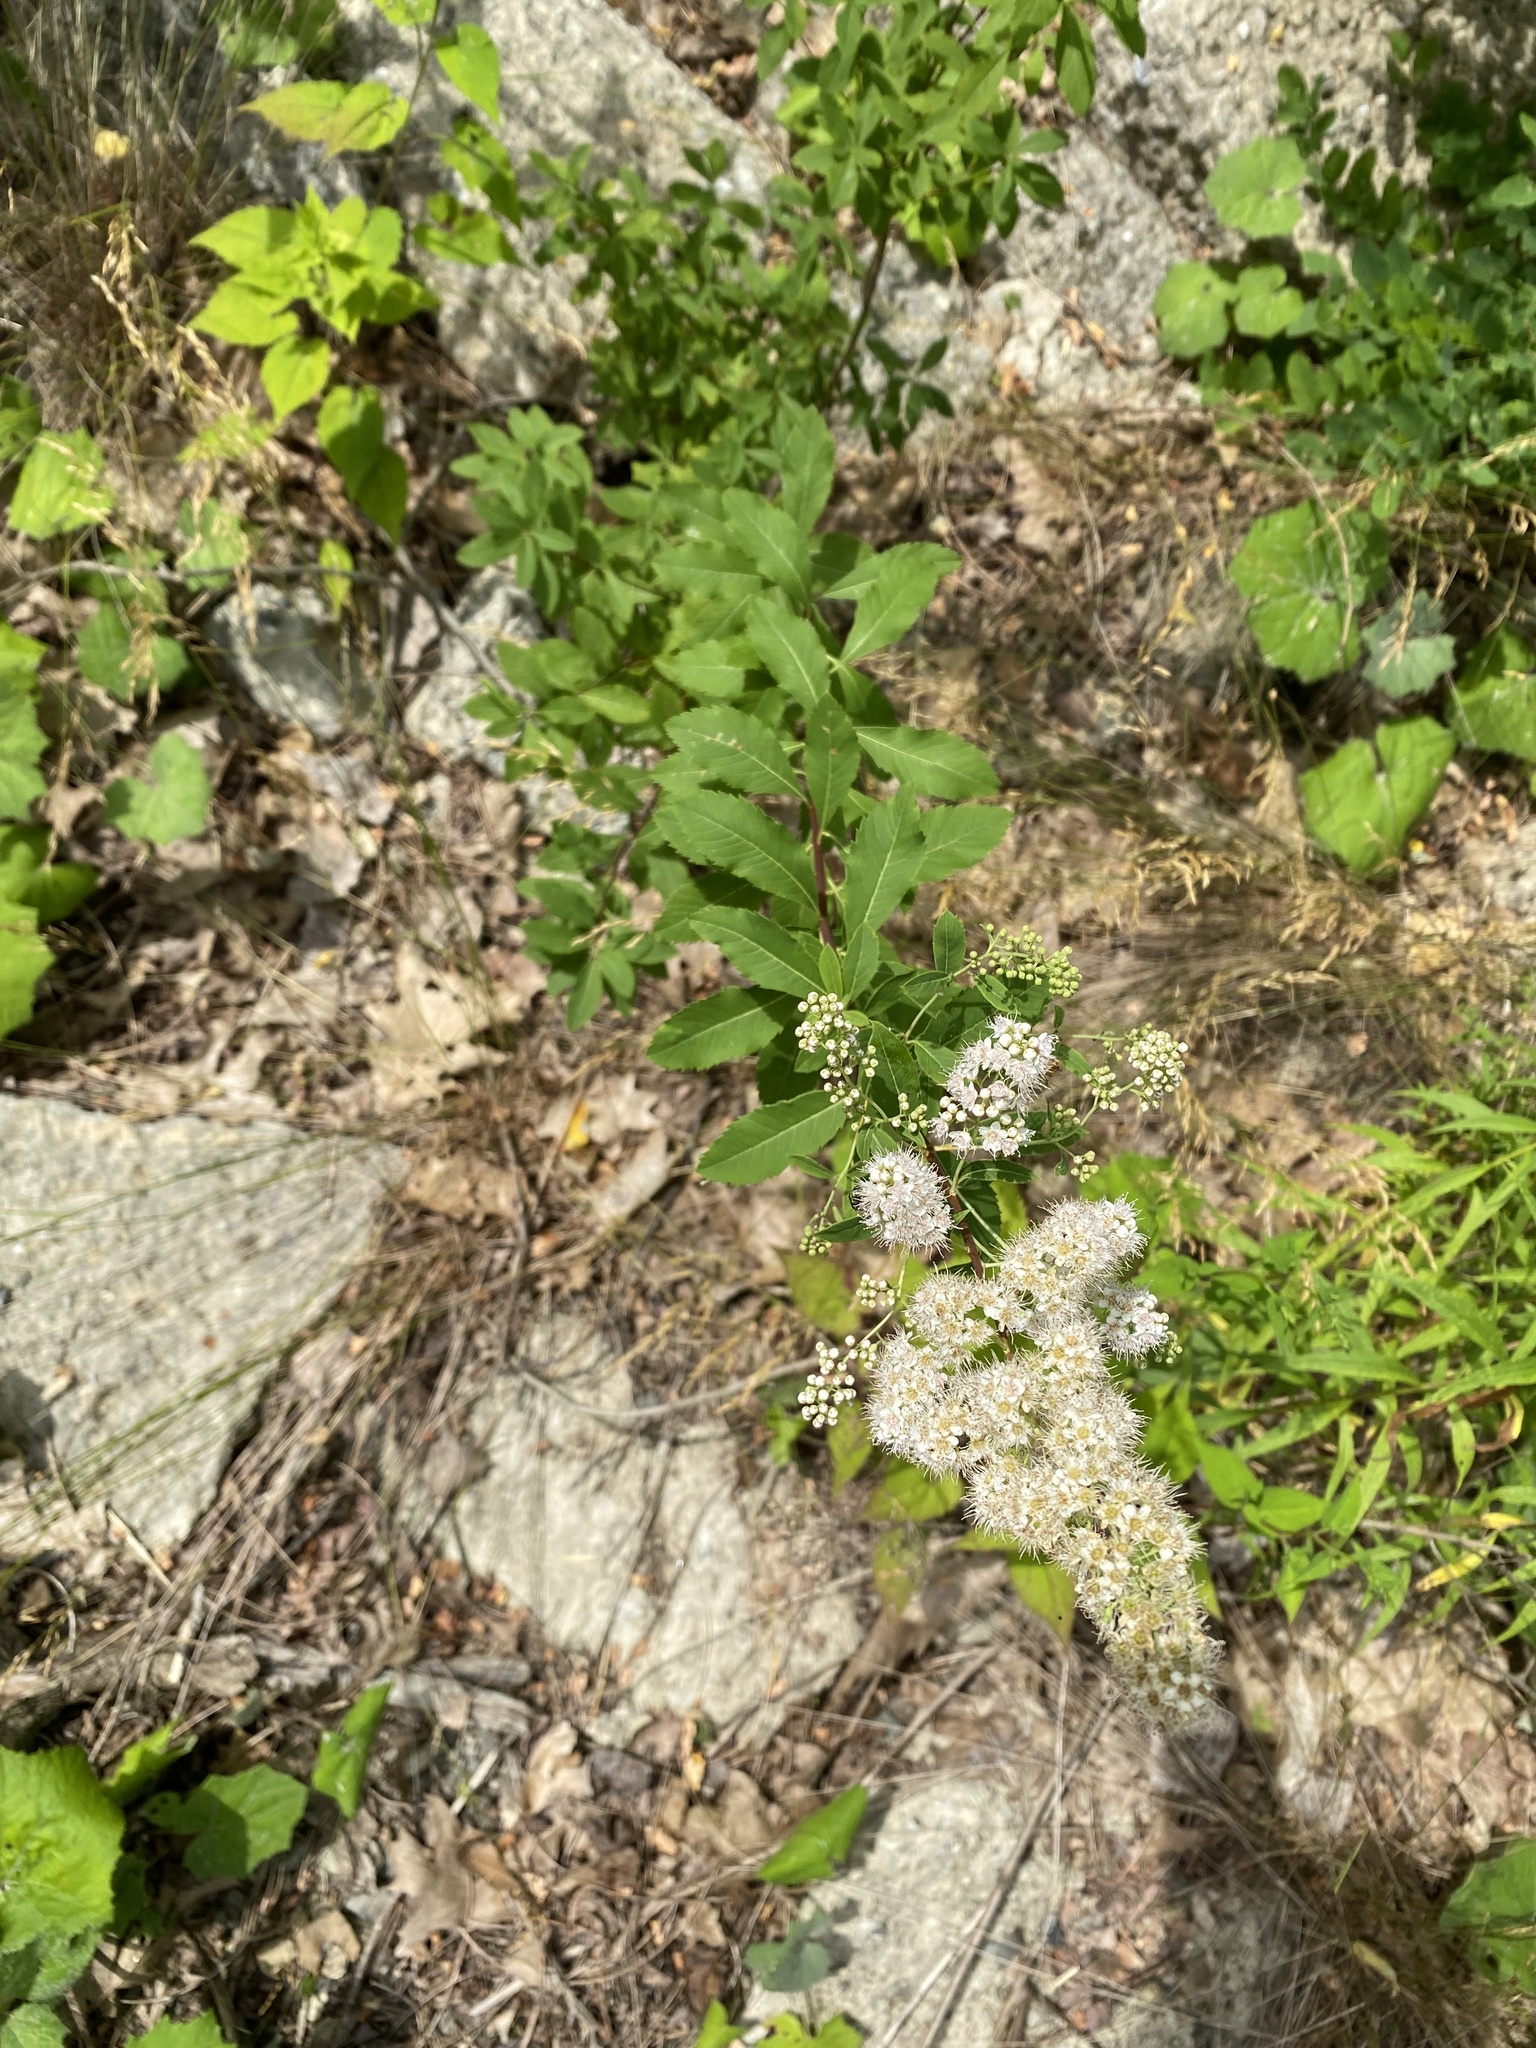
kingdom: Plantae
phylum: Tracheophyta
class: Magnoliopsida
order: Rosales
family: Rosaceae
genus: Spiraea
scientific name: Spiraea alba
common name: Pale bridewort
